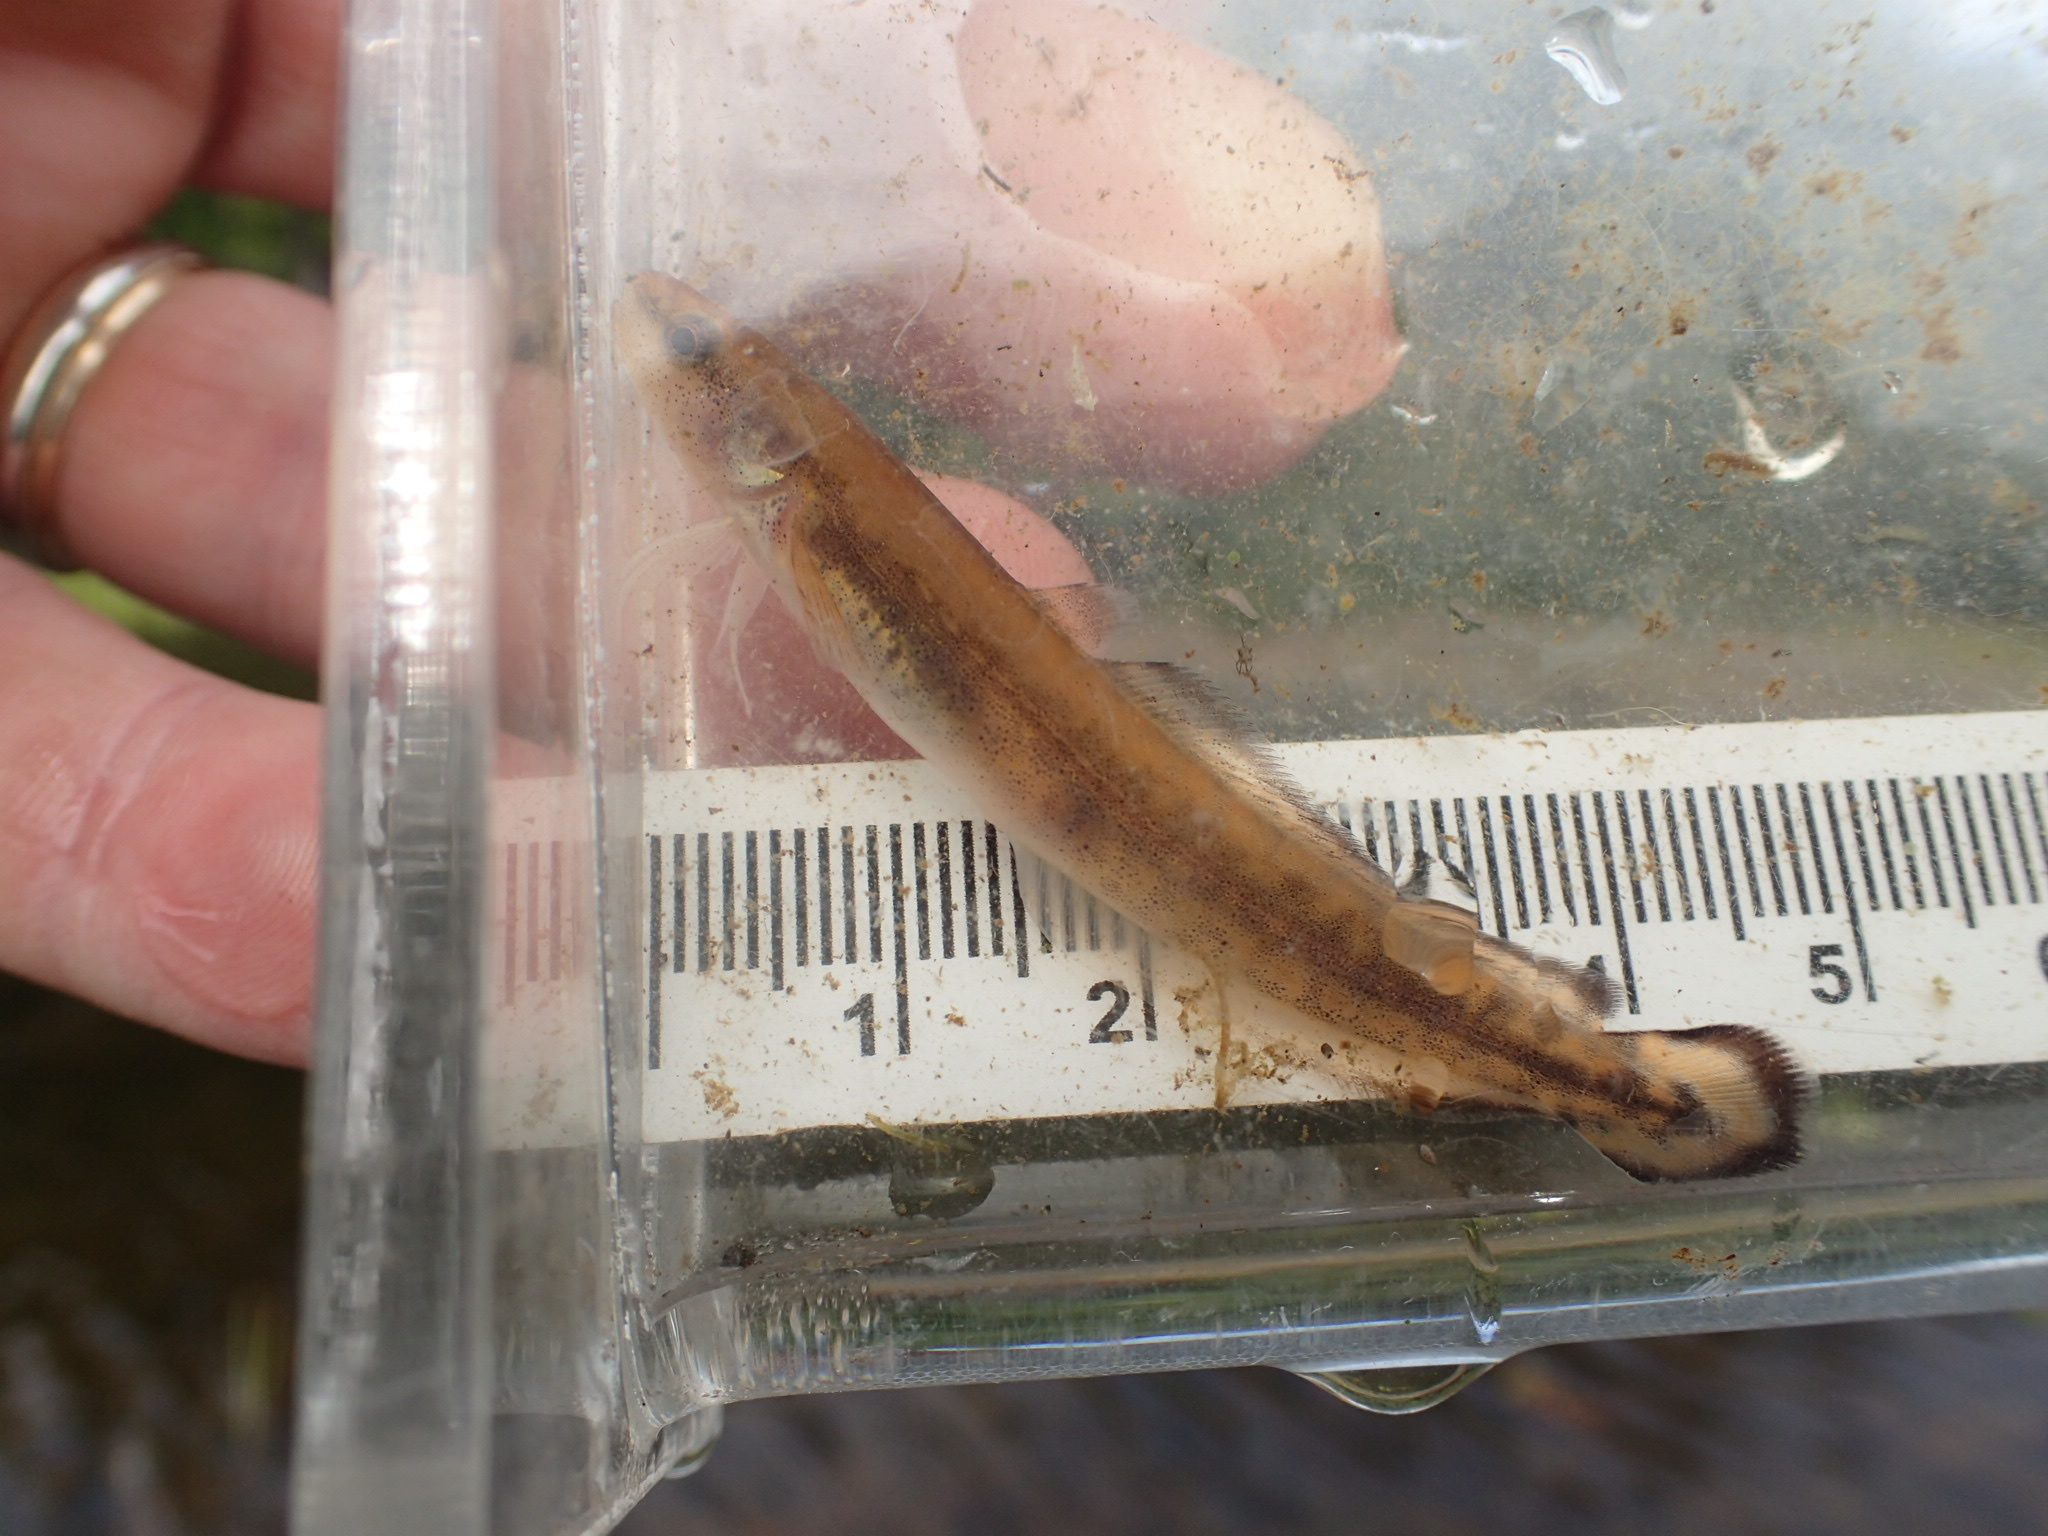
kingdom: Animalia
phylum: Chordata
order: Gadiformes
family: Lotidae
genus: Lota
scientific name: Lota lota
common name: Burbot
